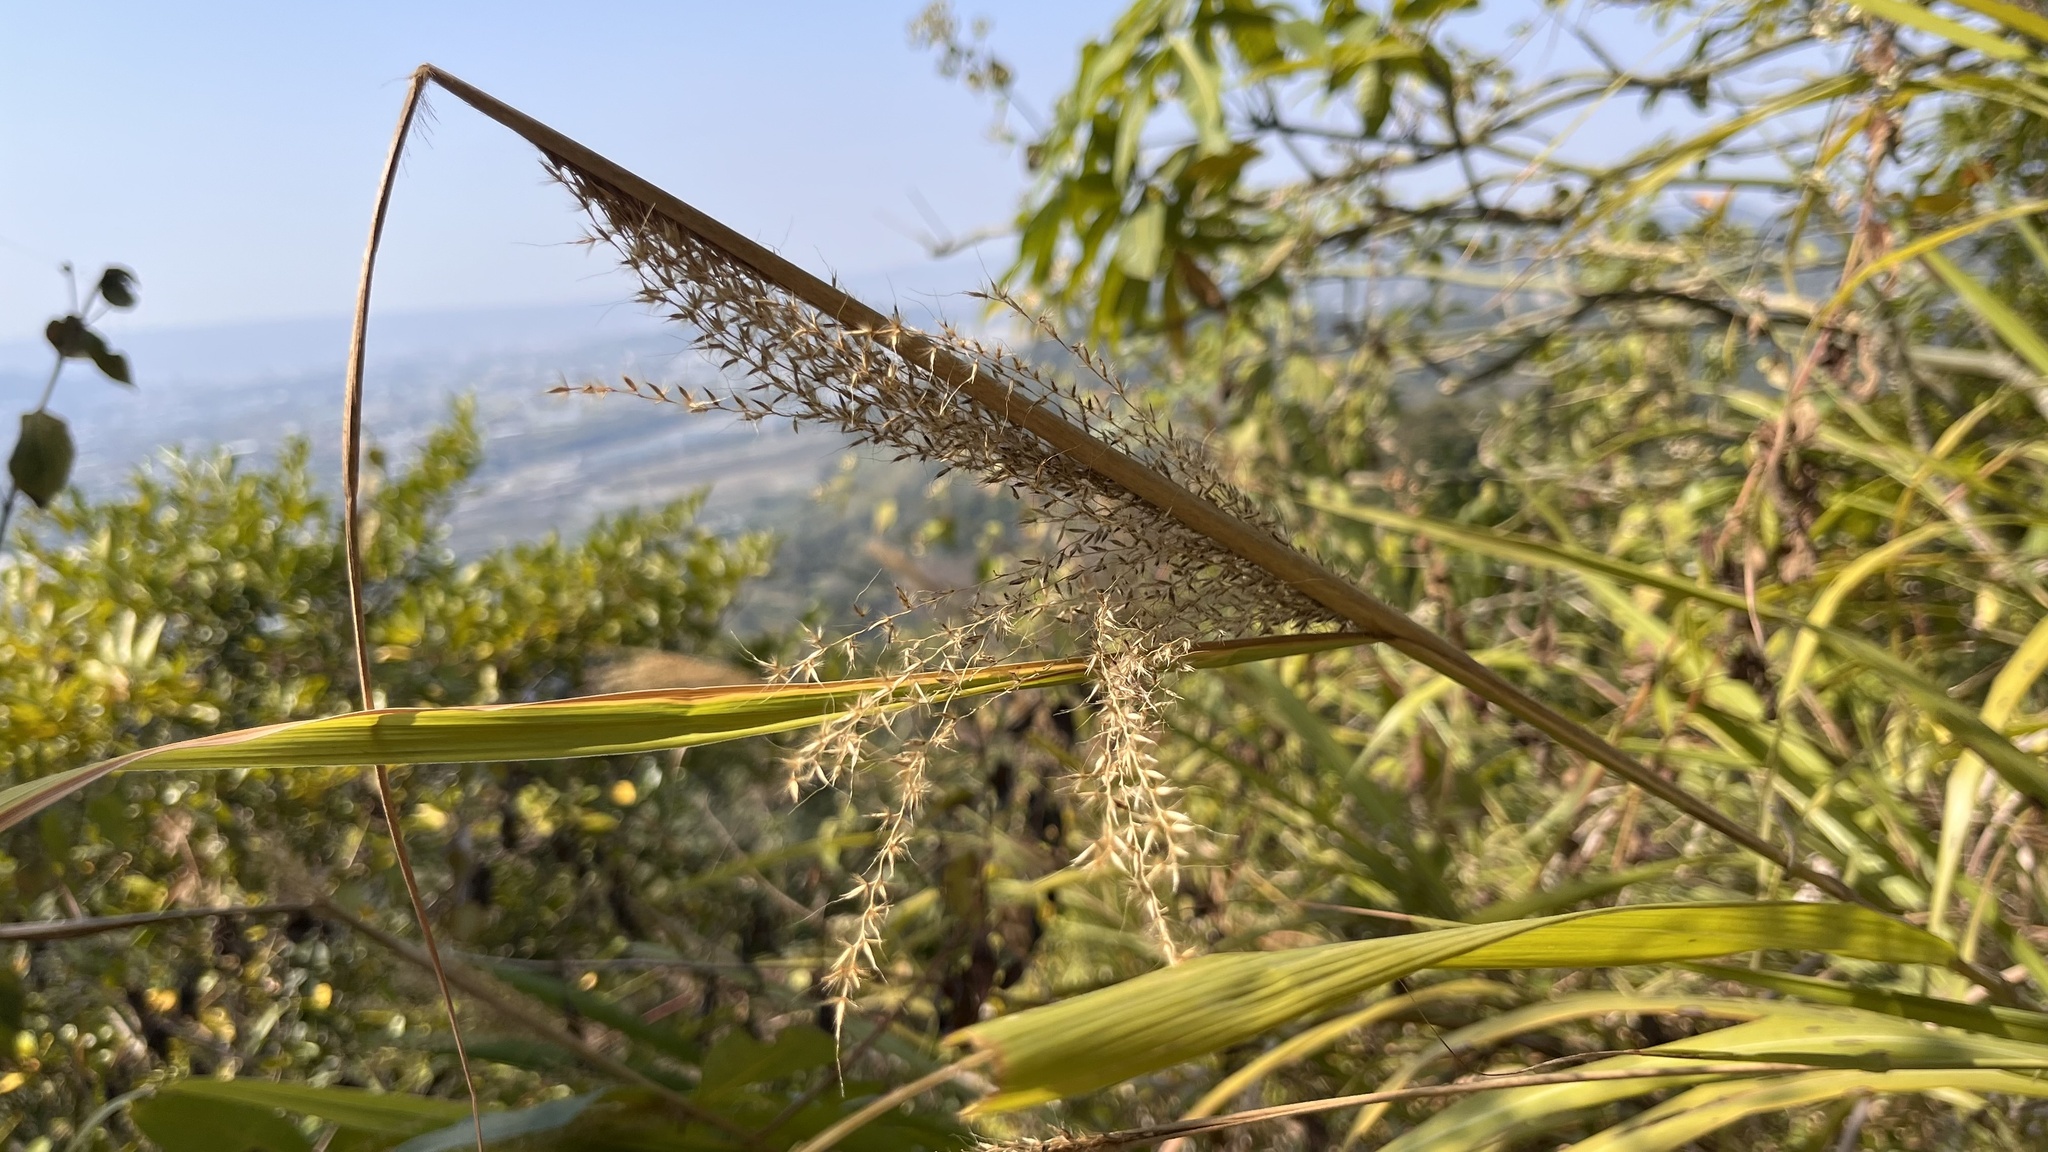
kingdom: Plantae
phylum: Tracheophyta
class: Liliopsida
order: Poales
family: Poaceae
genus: Miscanthus
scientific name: Miscanthus floridulus
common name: Pacific island silvergrass
